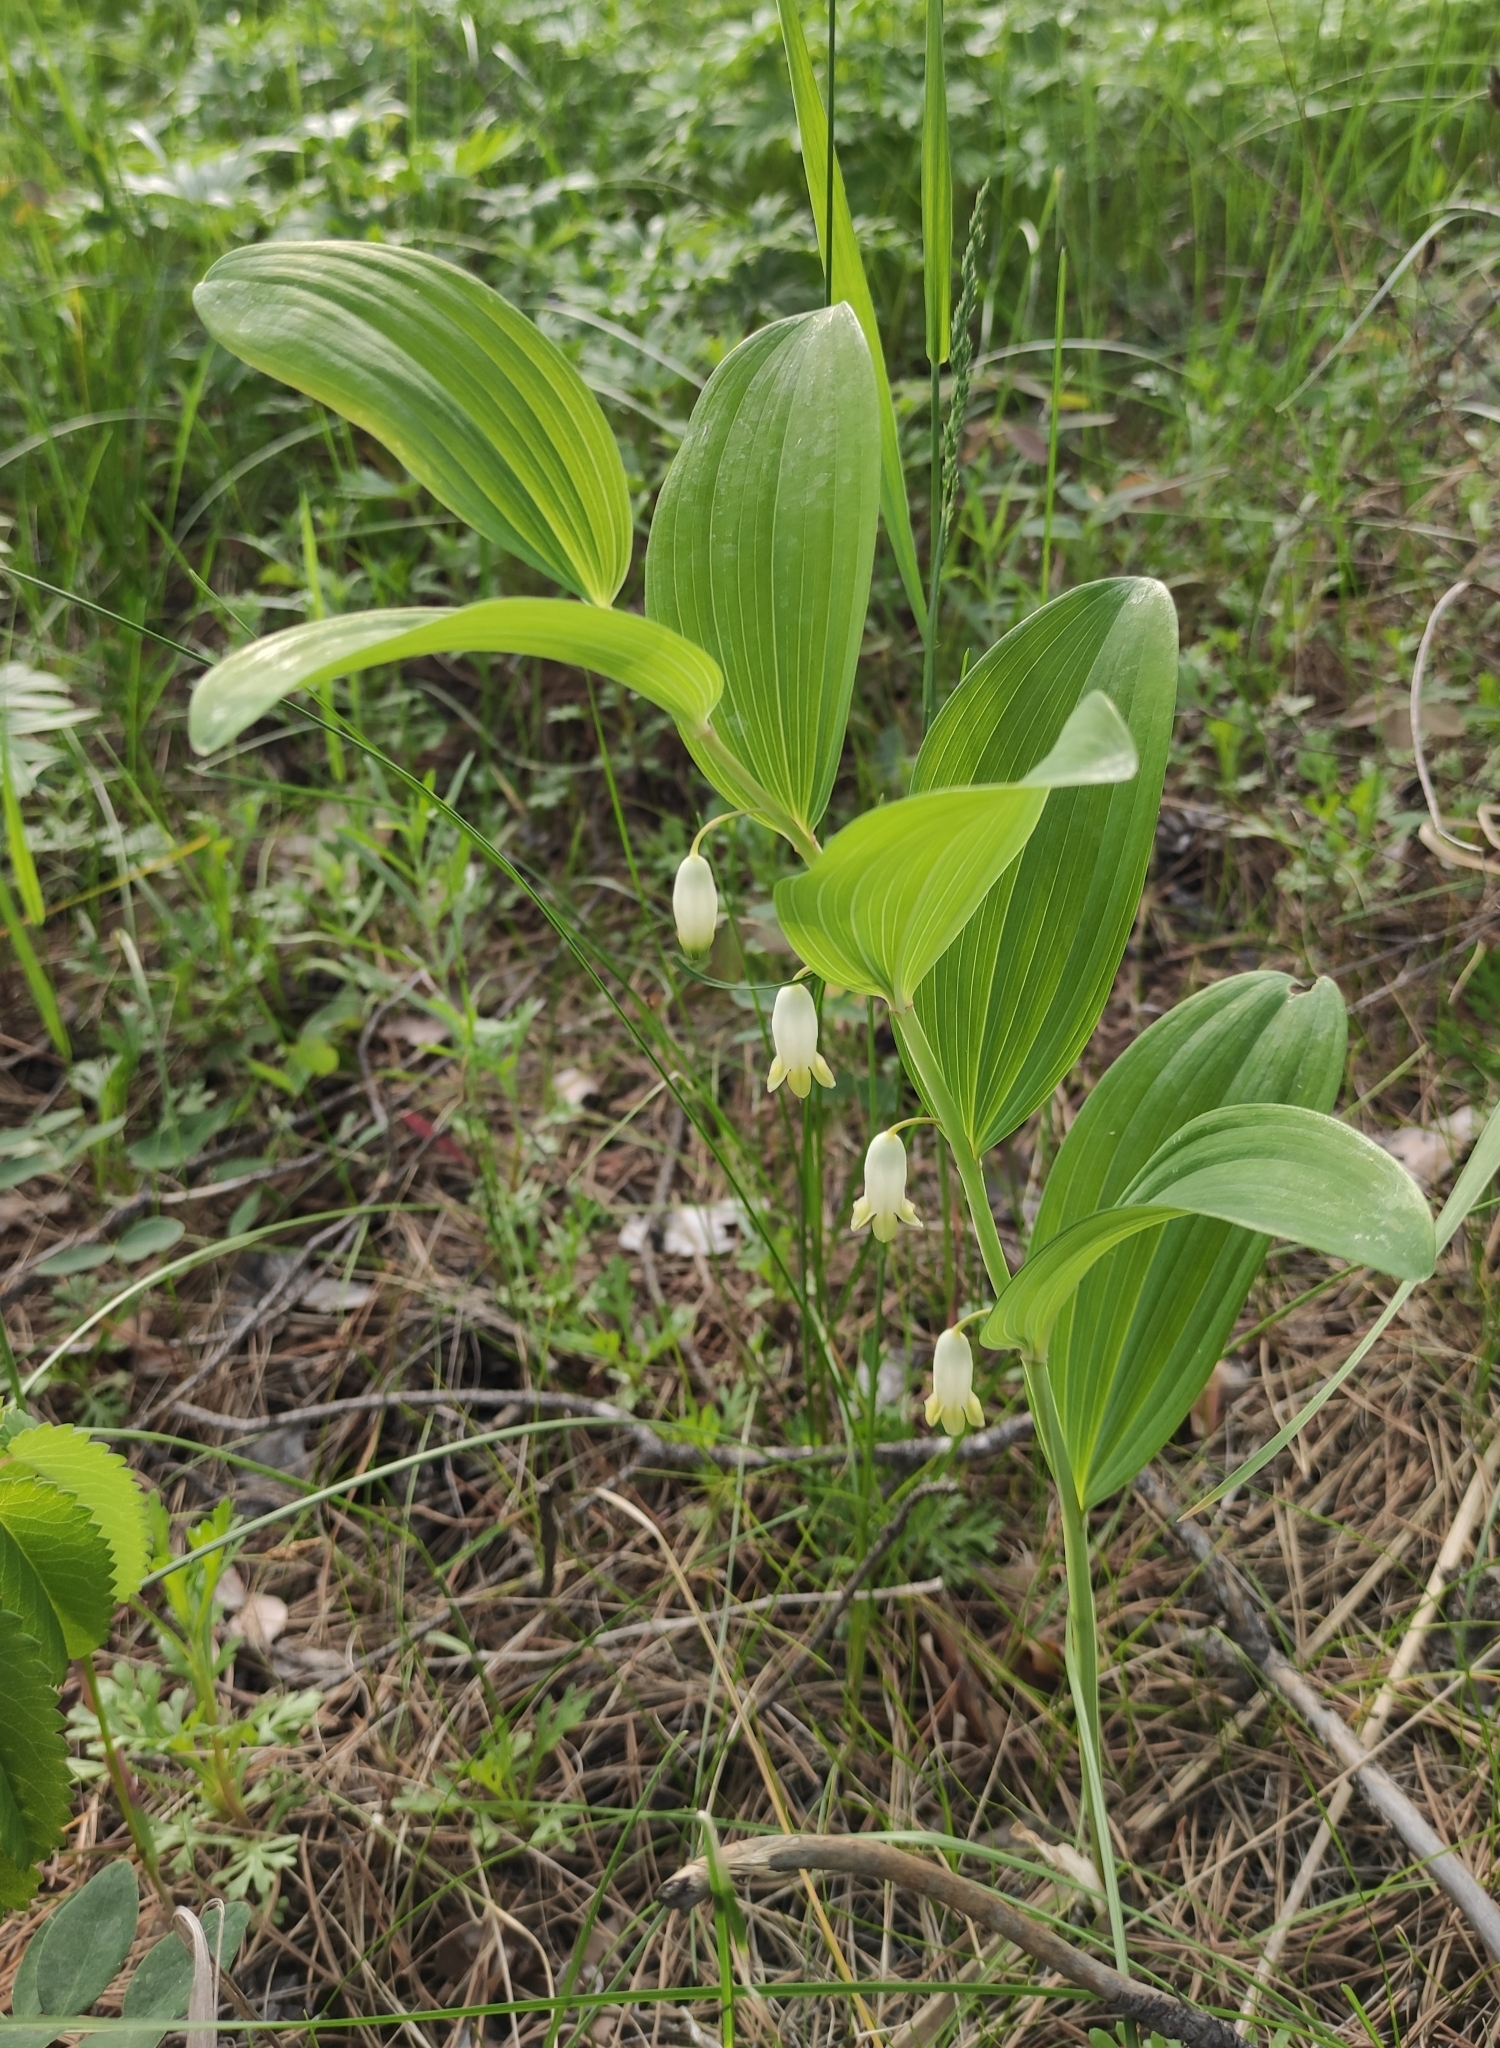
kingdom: Plantae
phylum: Tracheophyta
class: Liliopsida
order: Asparagales
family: Asparagaceae
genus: Polygonatum
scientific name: Polygonatum odoratum
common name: Angular solomon's-seal
